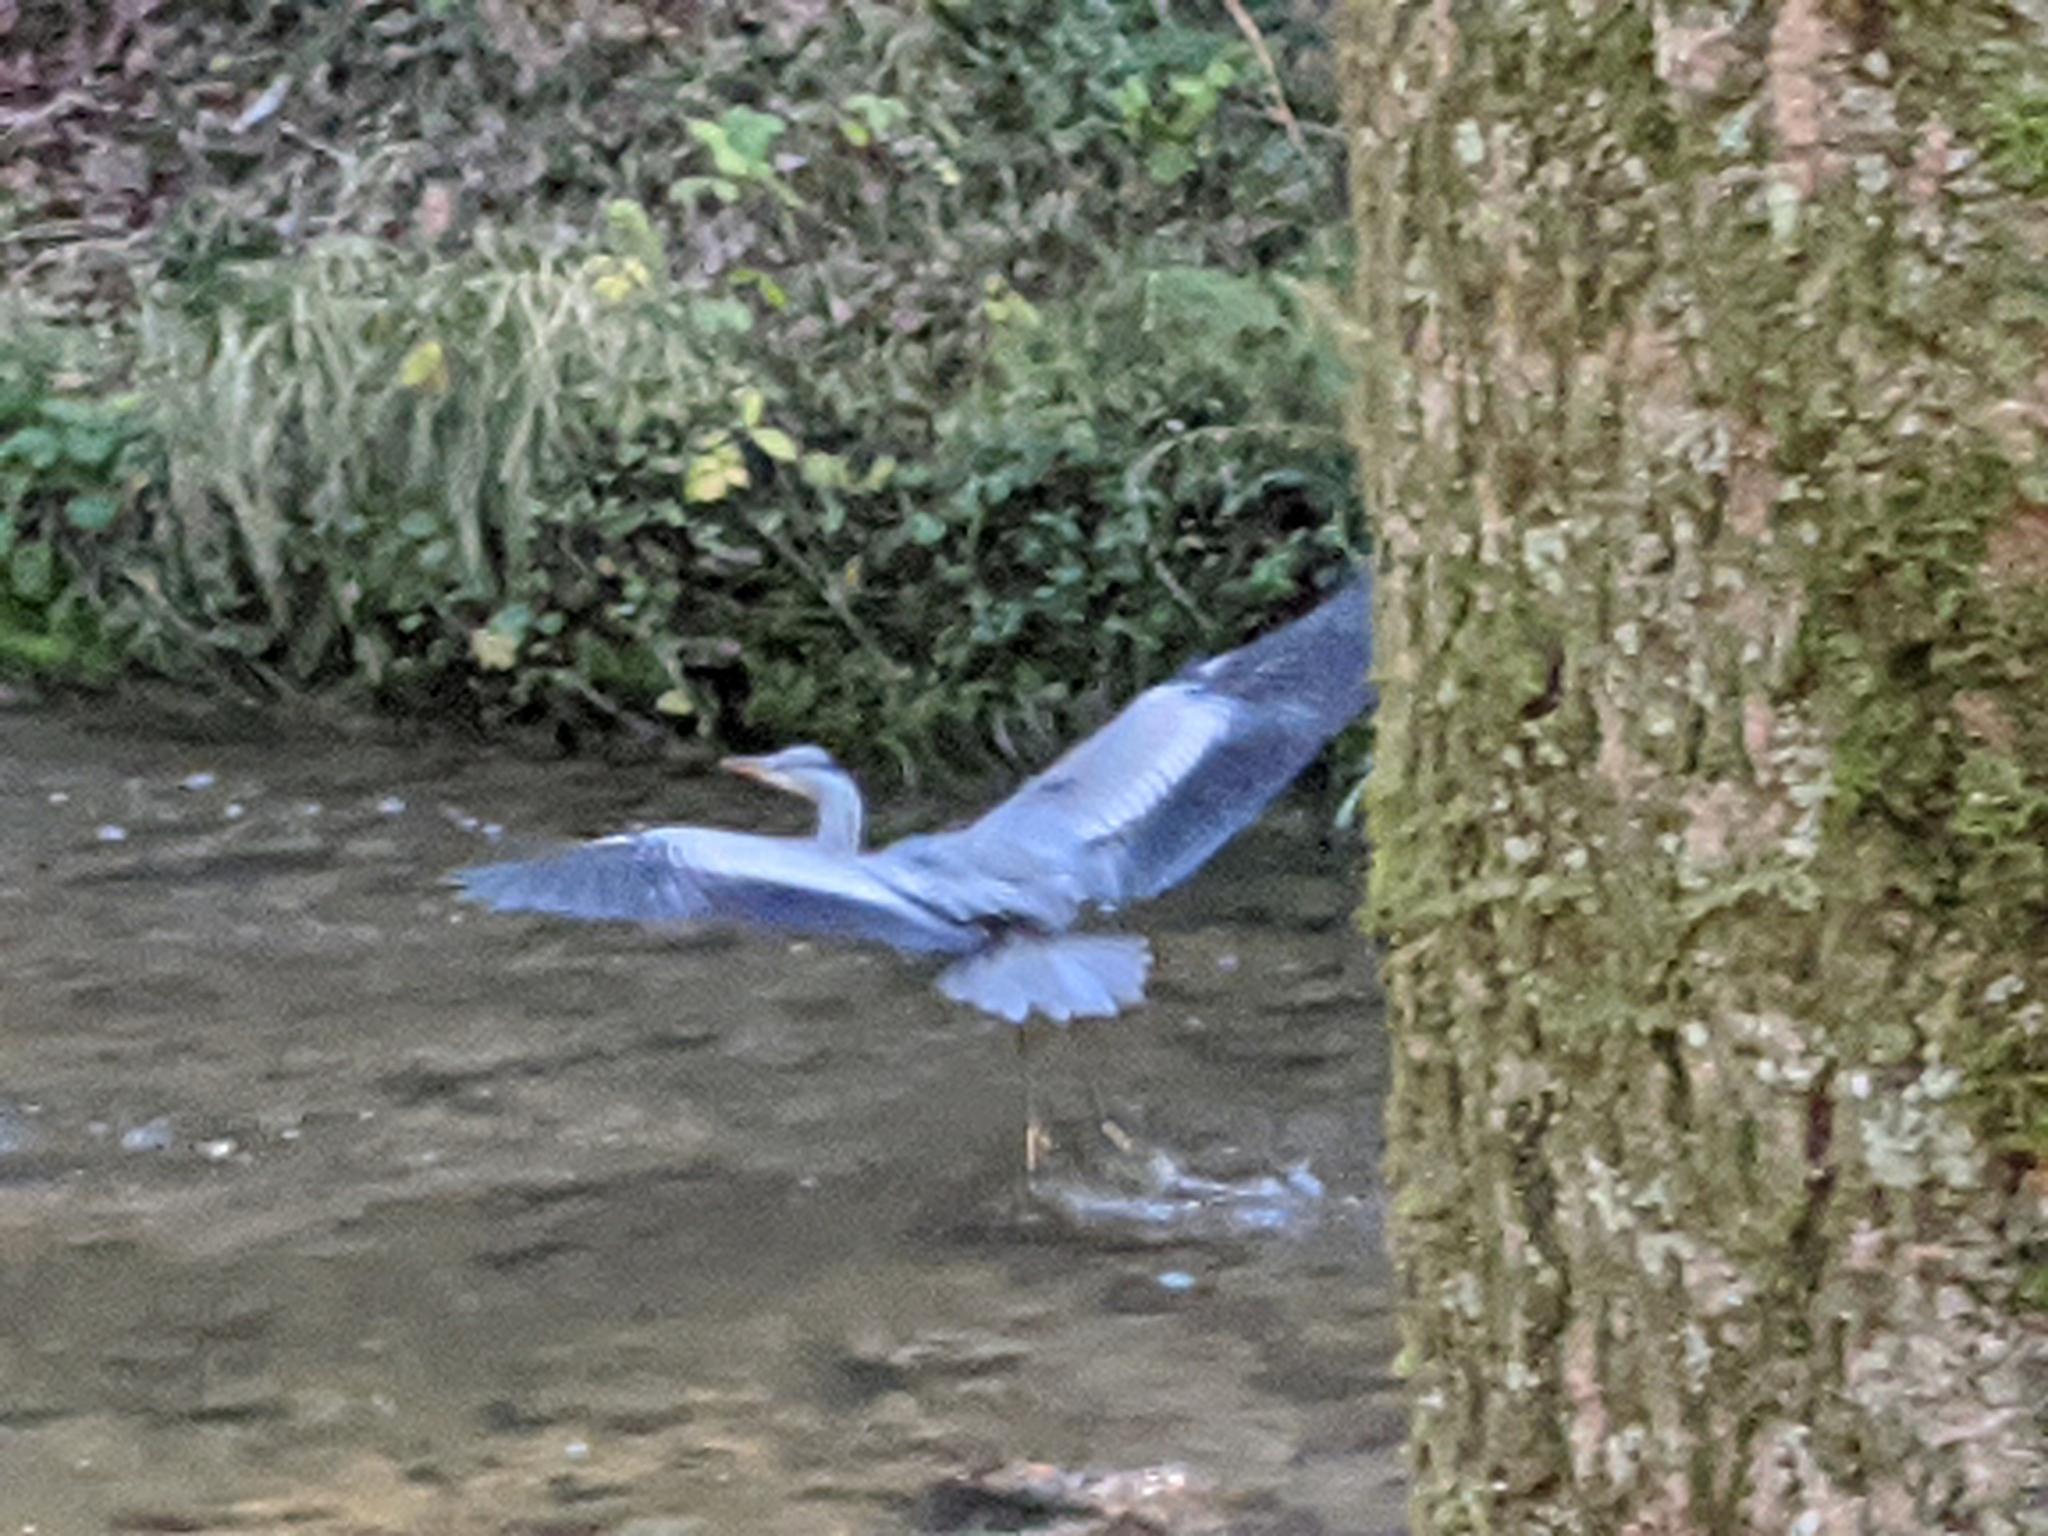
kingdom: Animalia
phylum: Chordata
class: Aves
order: Pelecaniformes
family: Ardeidae
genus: Ardea
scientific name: Ardea cinerea
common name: Grey heron
